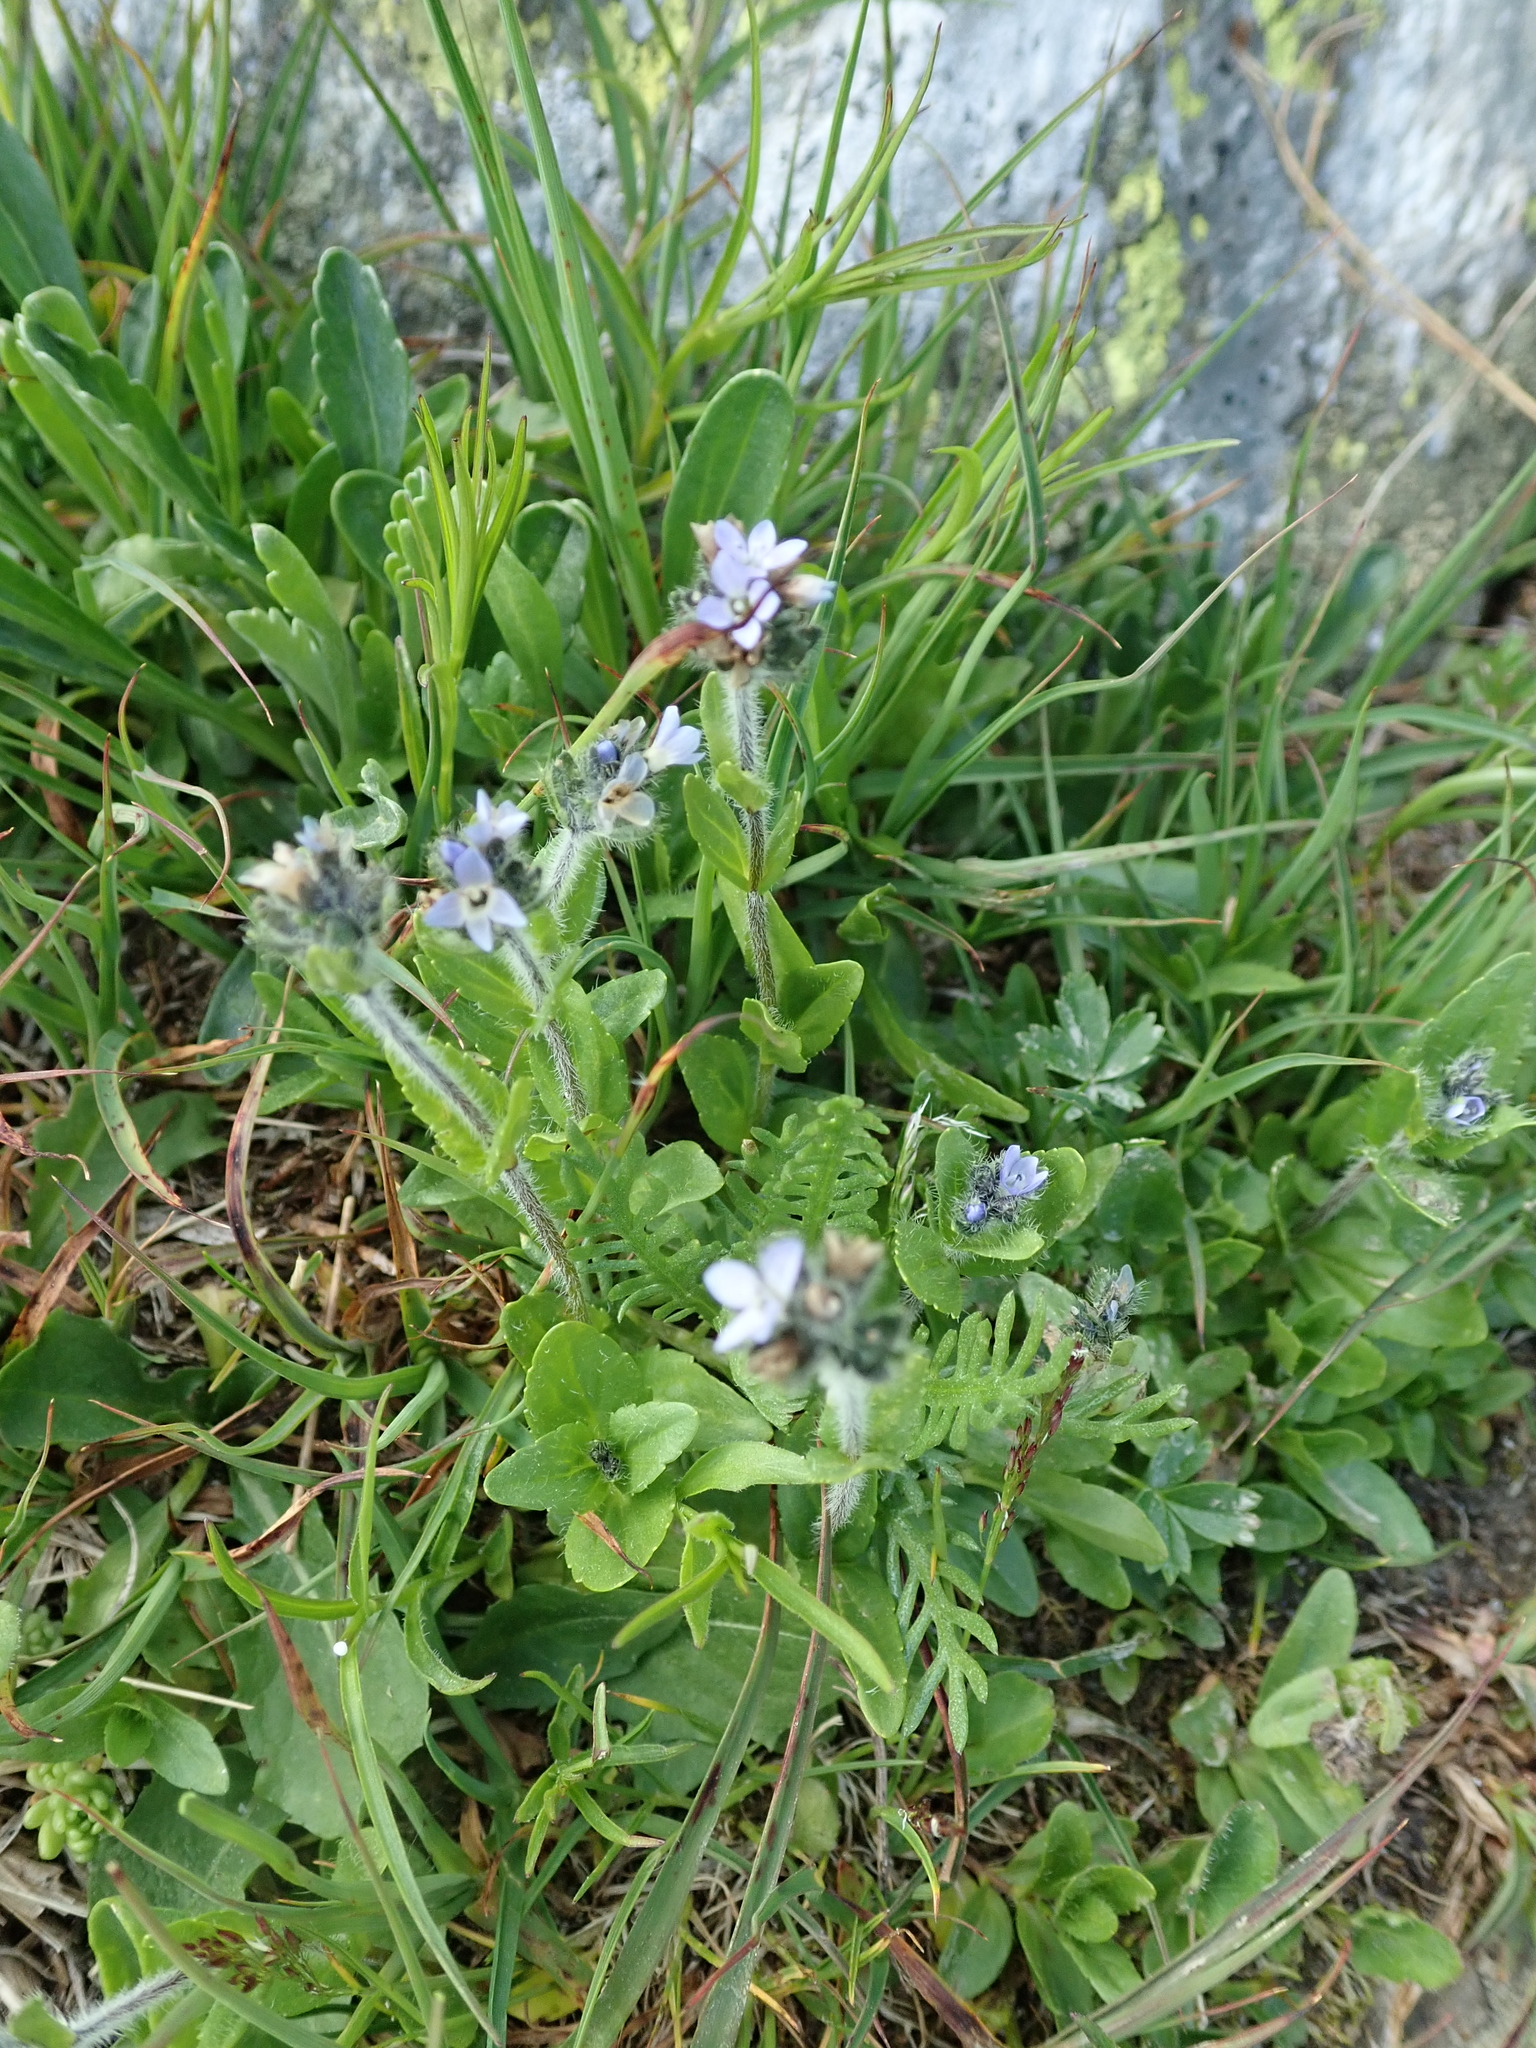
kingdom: Plantae
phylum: Tracheophyta
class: Magnoliopsida
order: Lamiales
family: Plantaginaceae
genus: Veronica
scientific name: Veronica alpina
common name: Alpine speedwell
